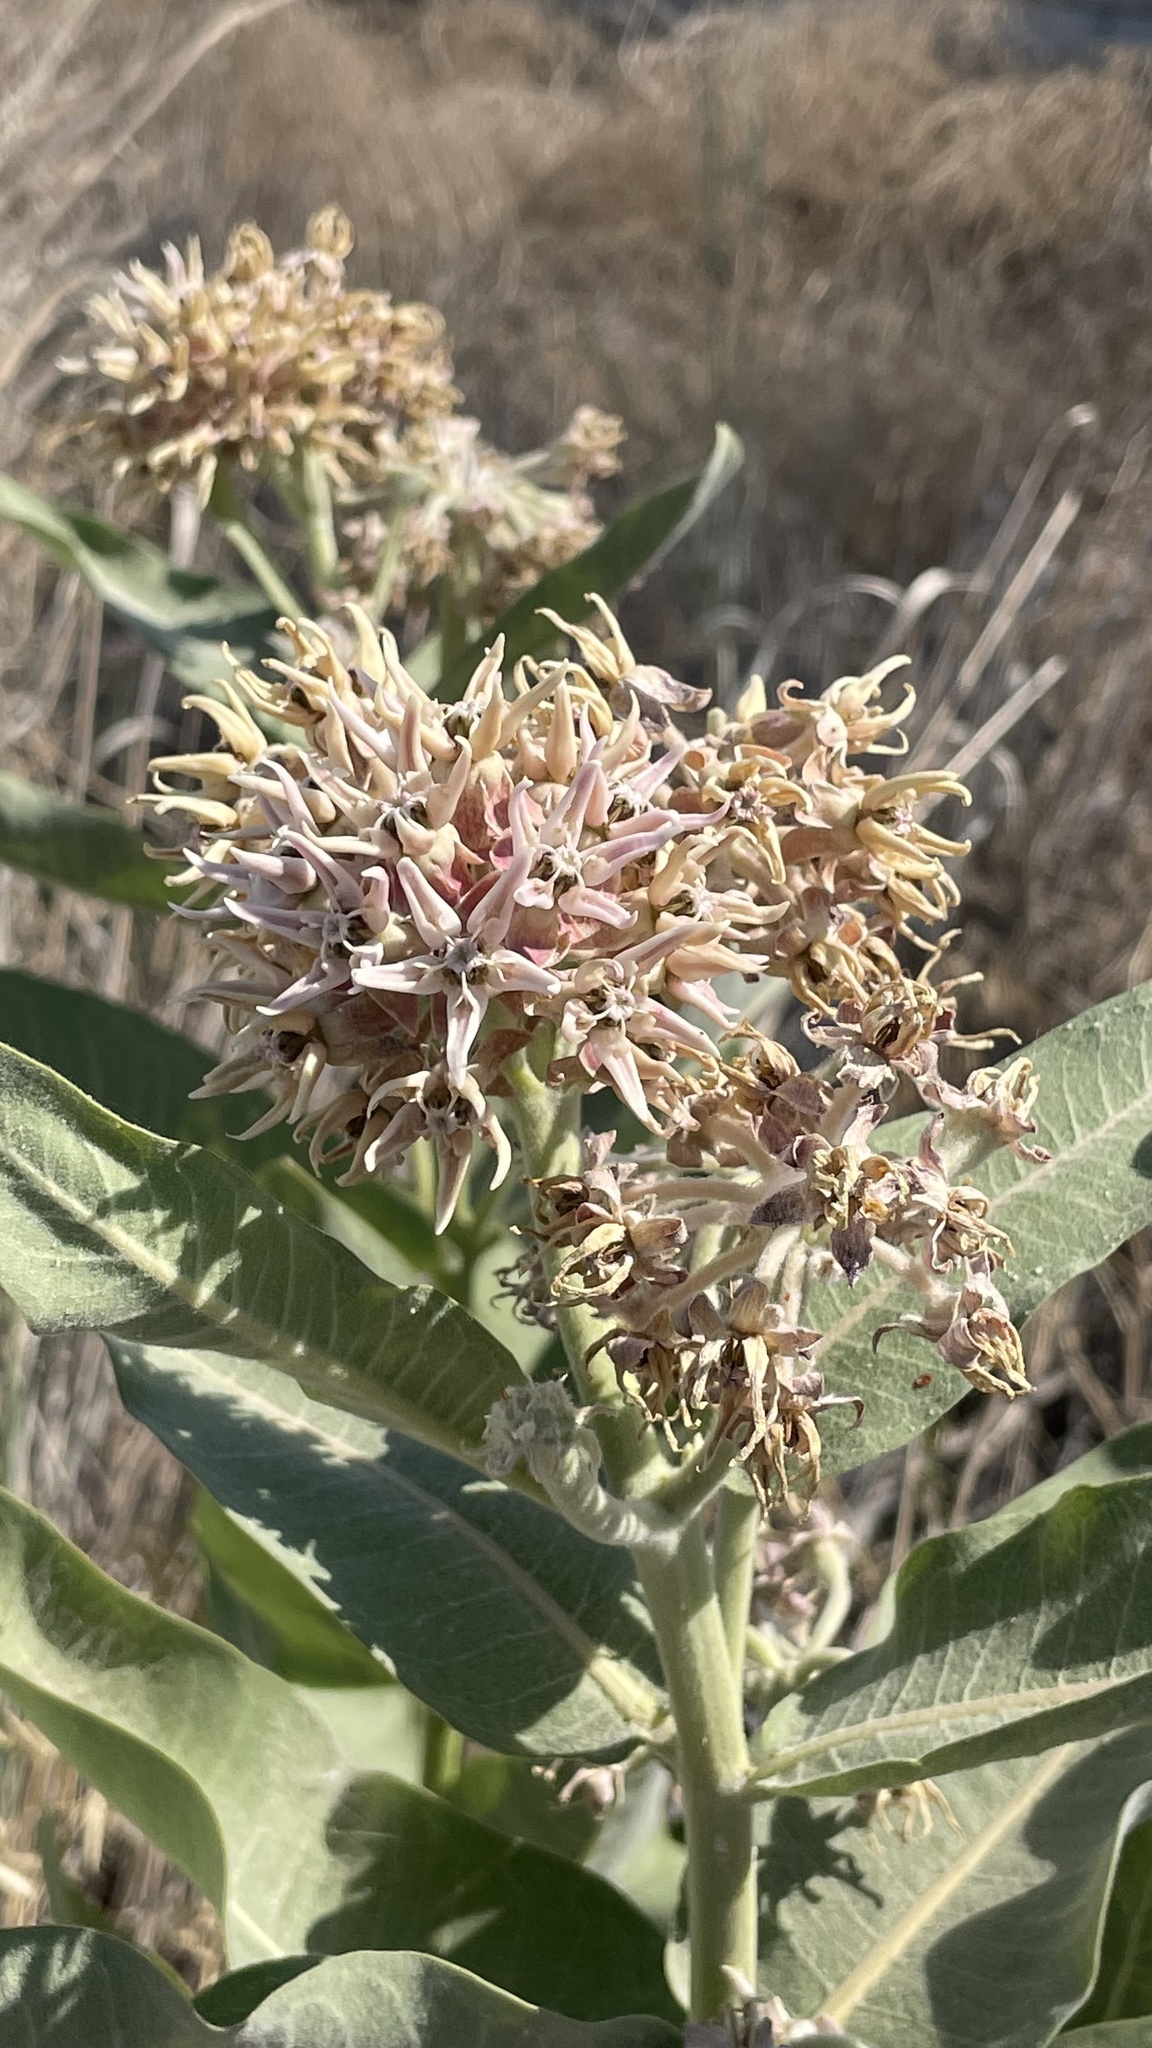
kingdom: Plantae
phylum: Tracheophyta
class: Magnoliopsida
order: Gentianales
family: Apocynaceae
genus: Asclepias
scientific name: Asclepias speciosa
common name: Showy milkweed
